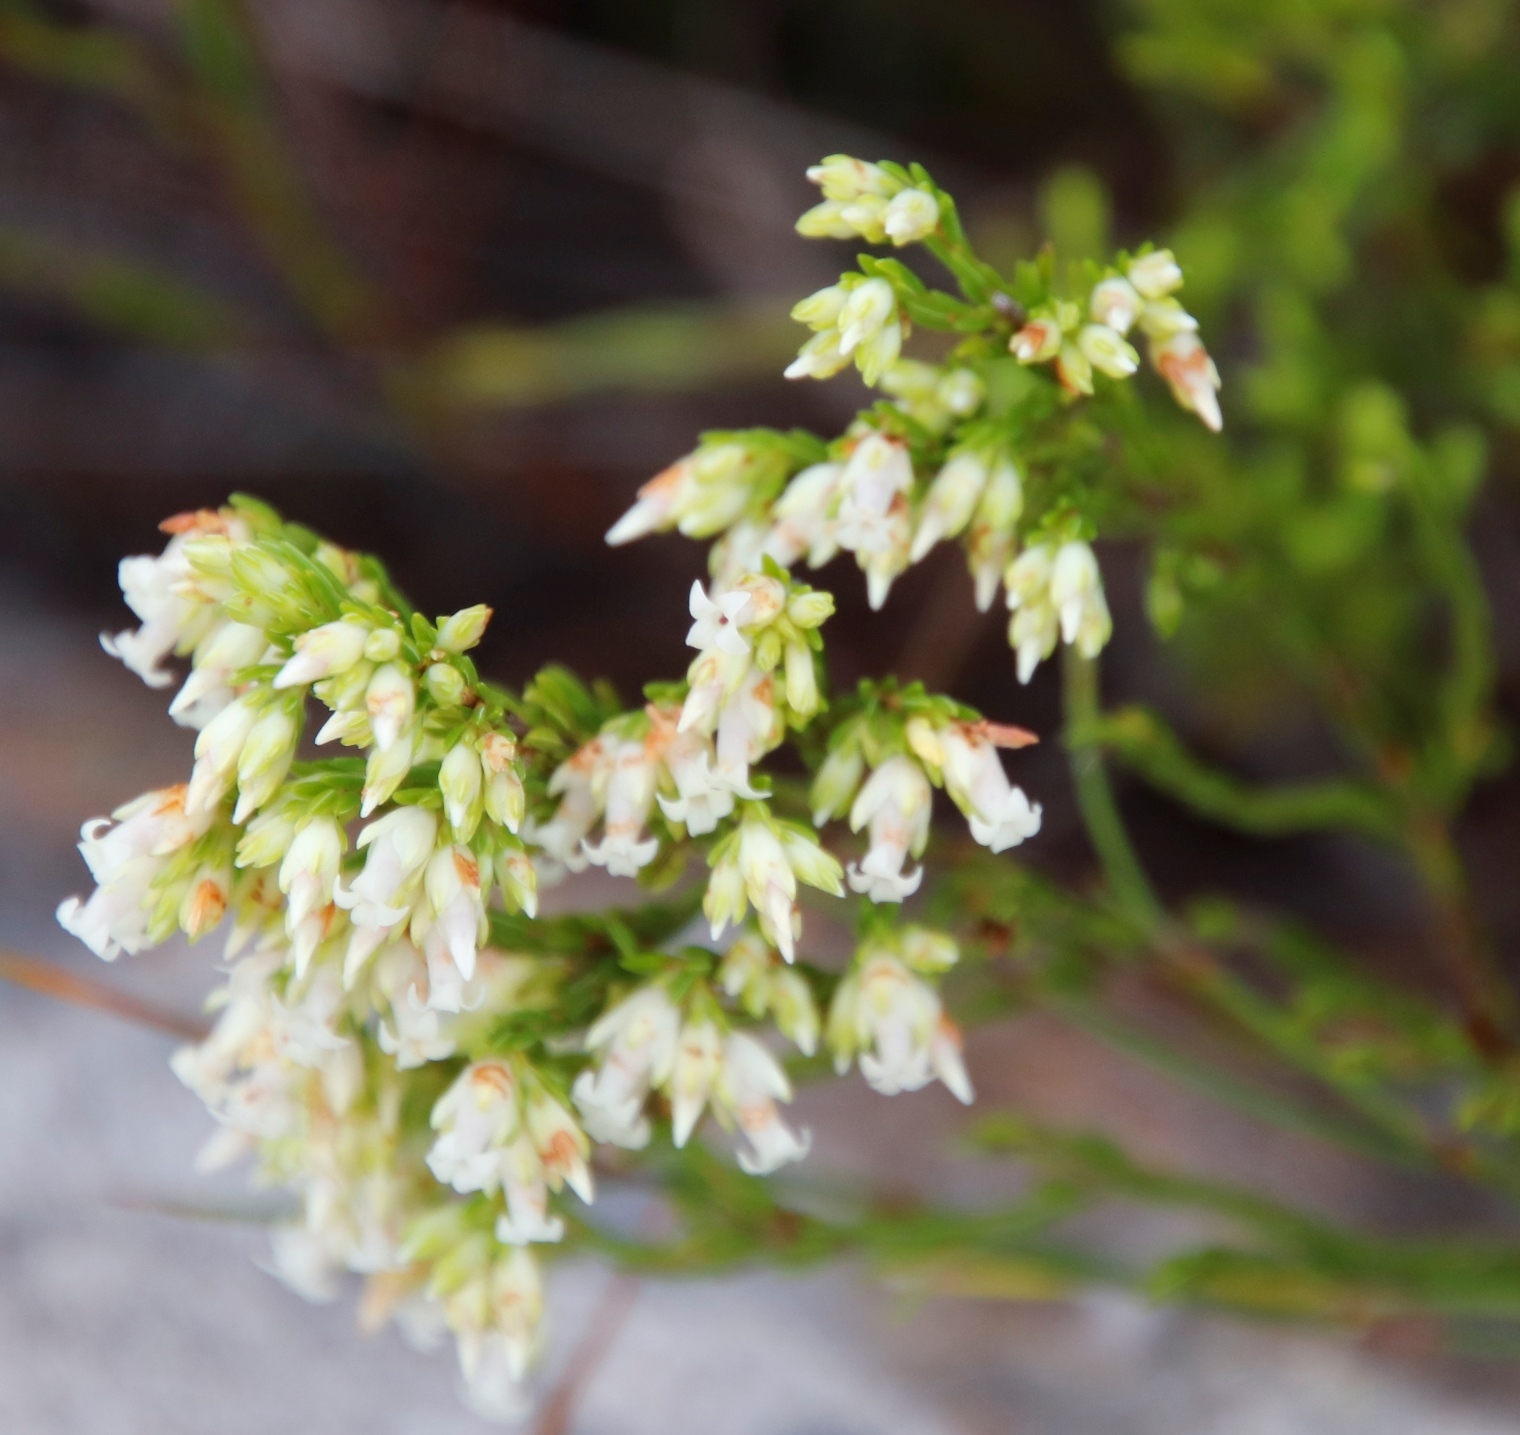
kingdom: Plantae
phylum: Tracheophyta
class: Magnoliopsida
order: Ericales
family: Ericaceae
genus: Erica
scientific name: Erica lutea
